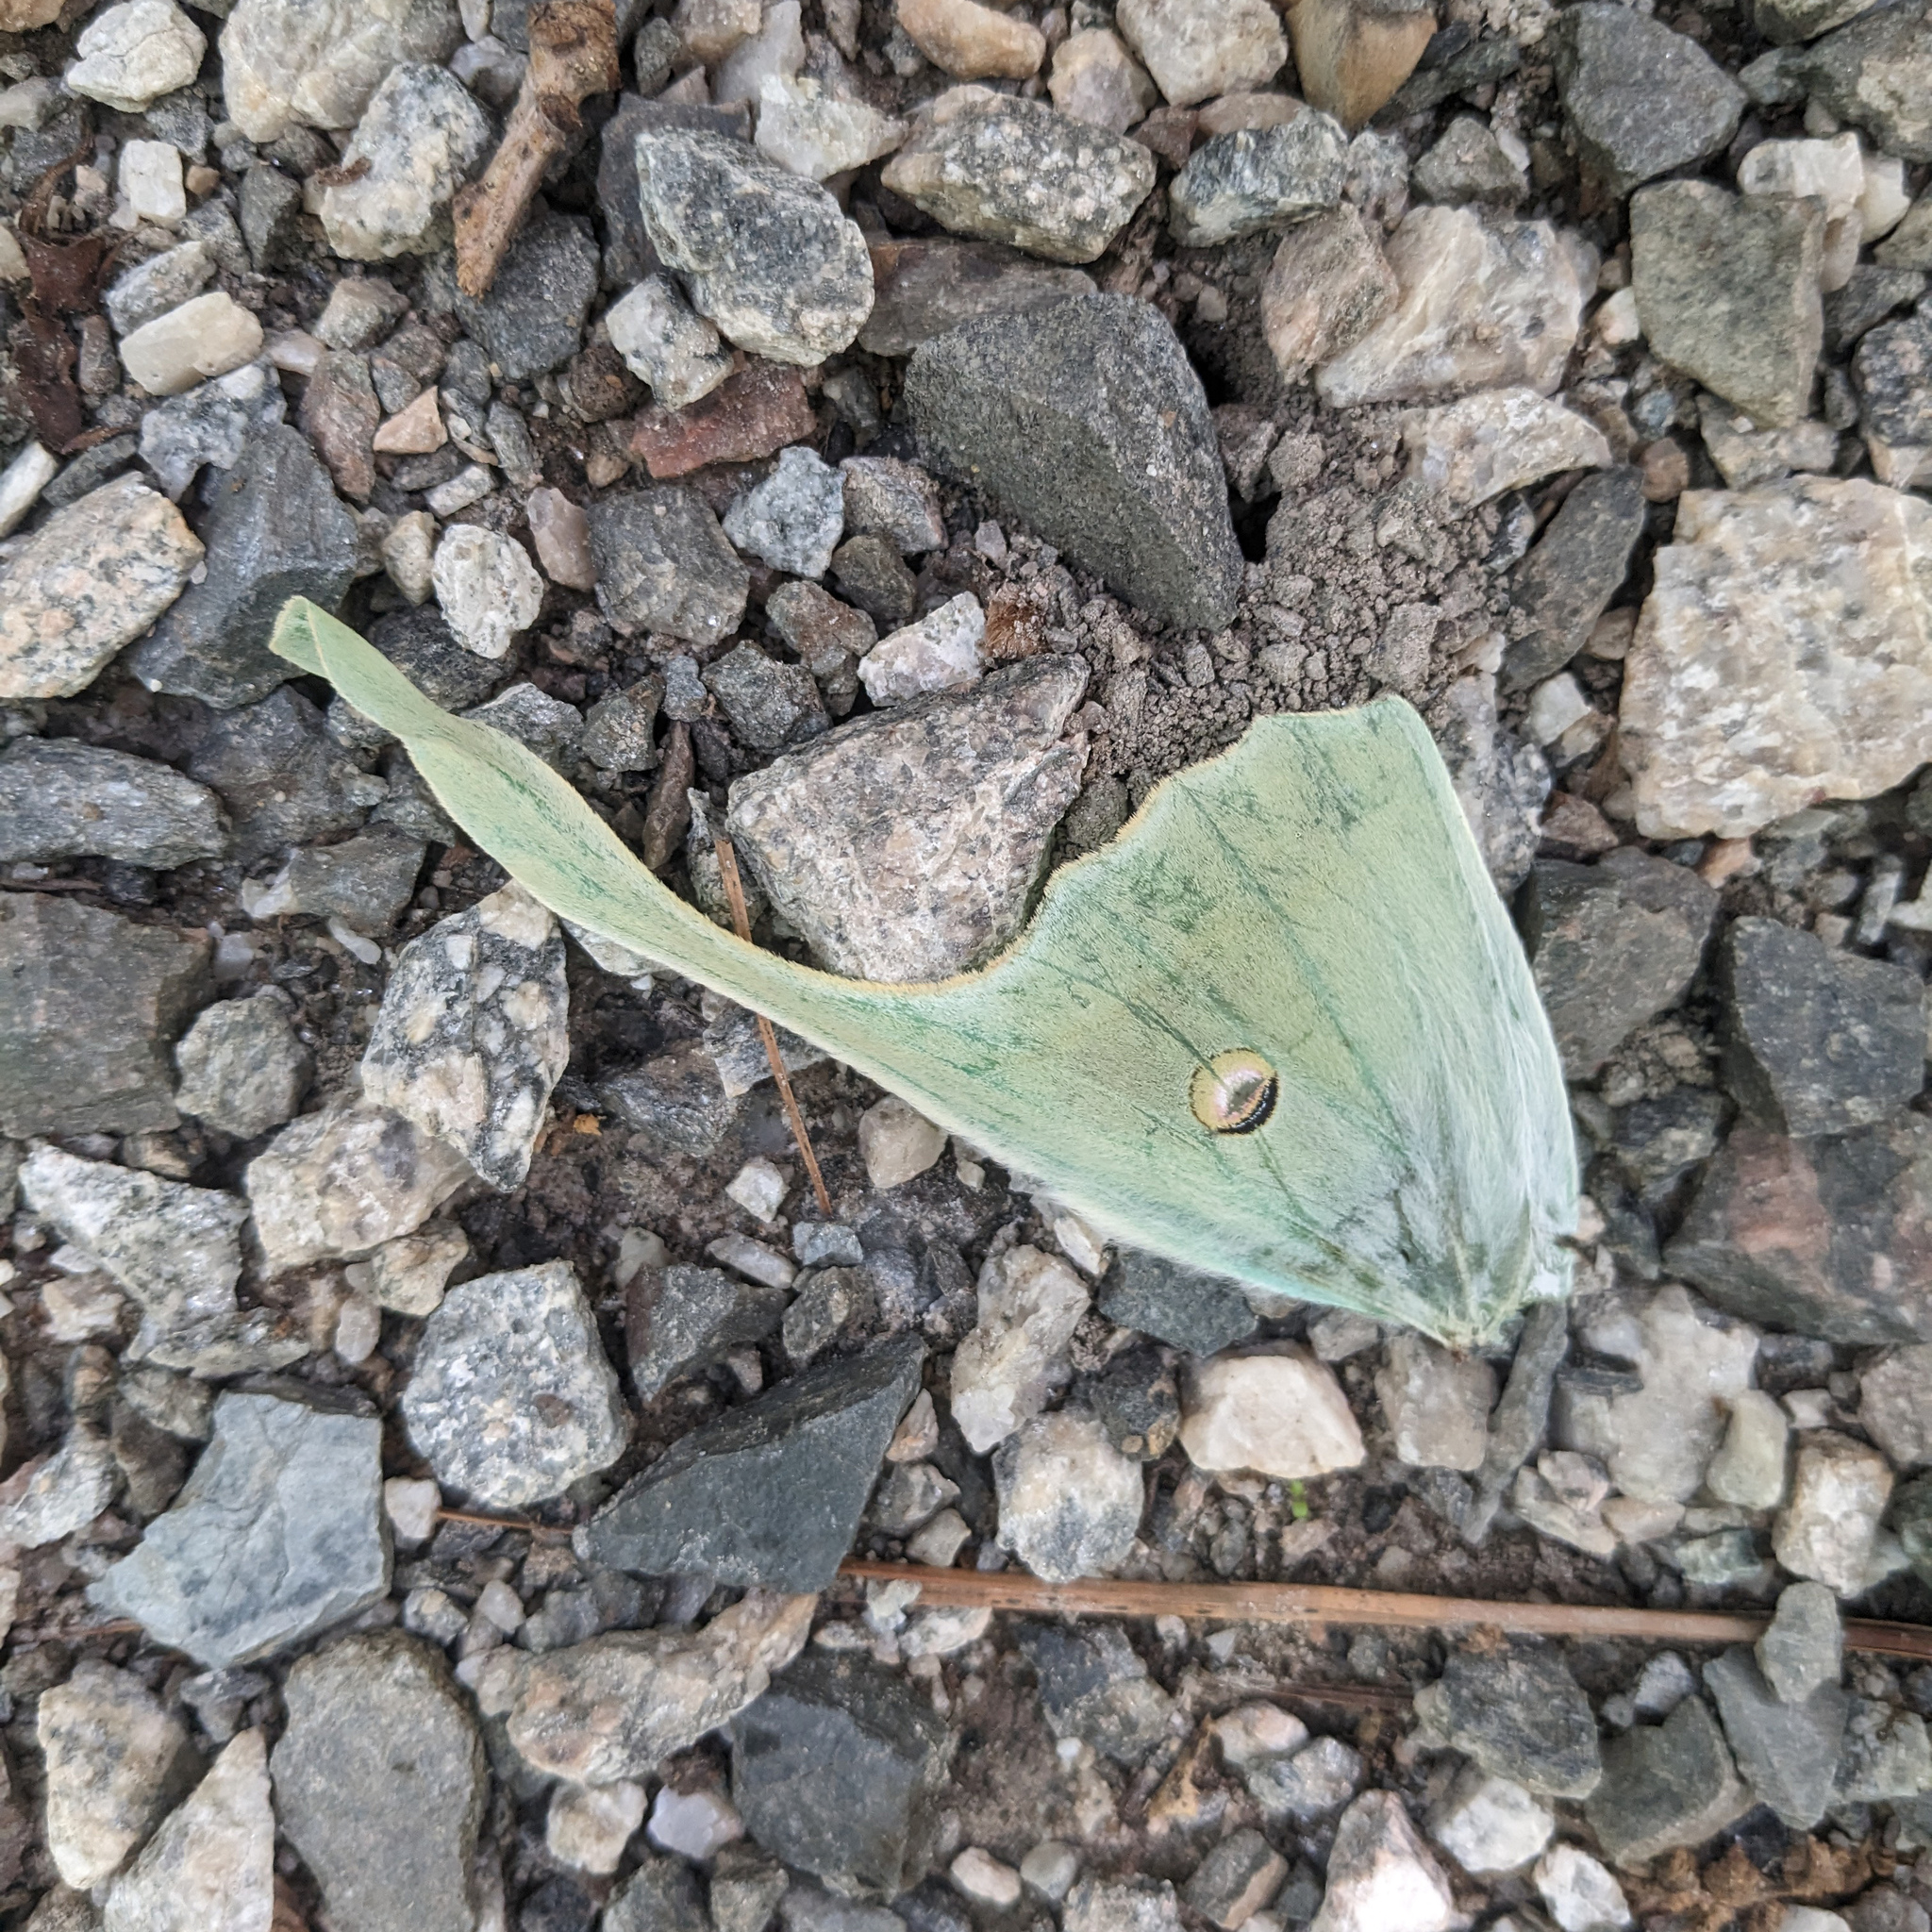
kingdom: Animalia
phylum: Arthropoda
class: Insecta
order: Lepidoptera
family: Saturniidae
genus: Actias
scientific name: Actias luna
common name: Luna moth
